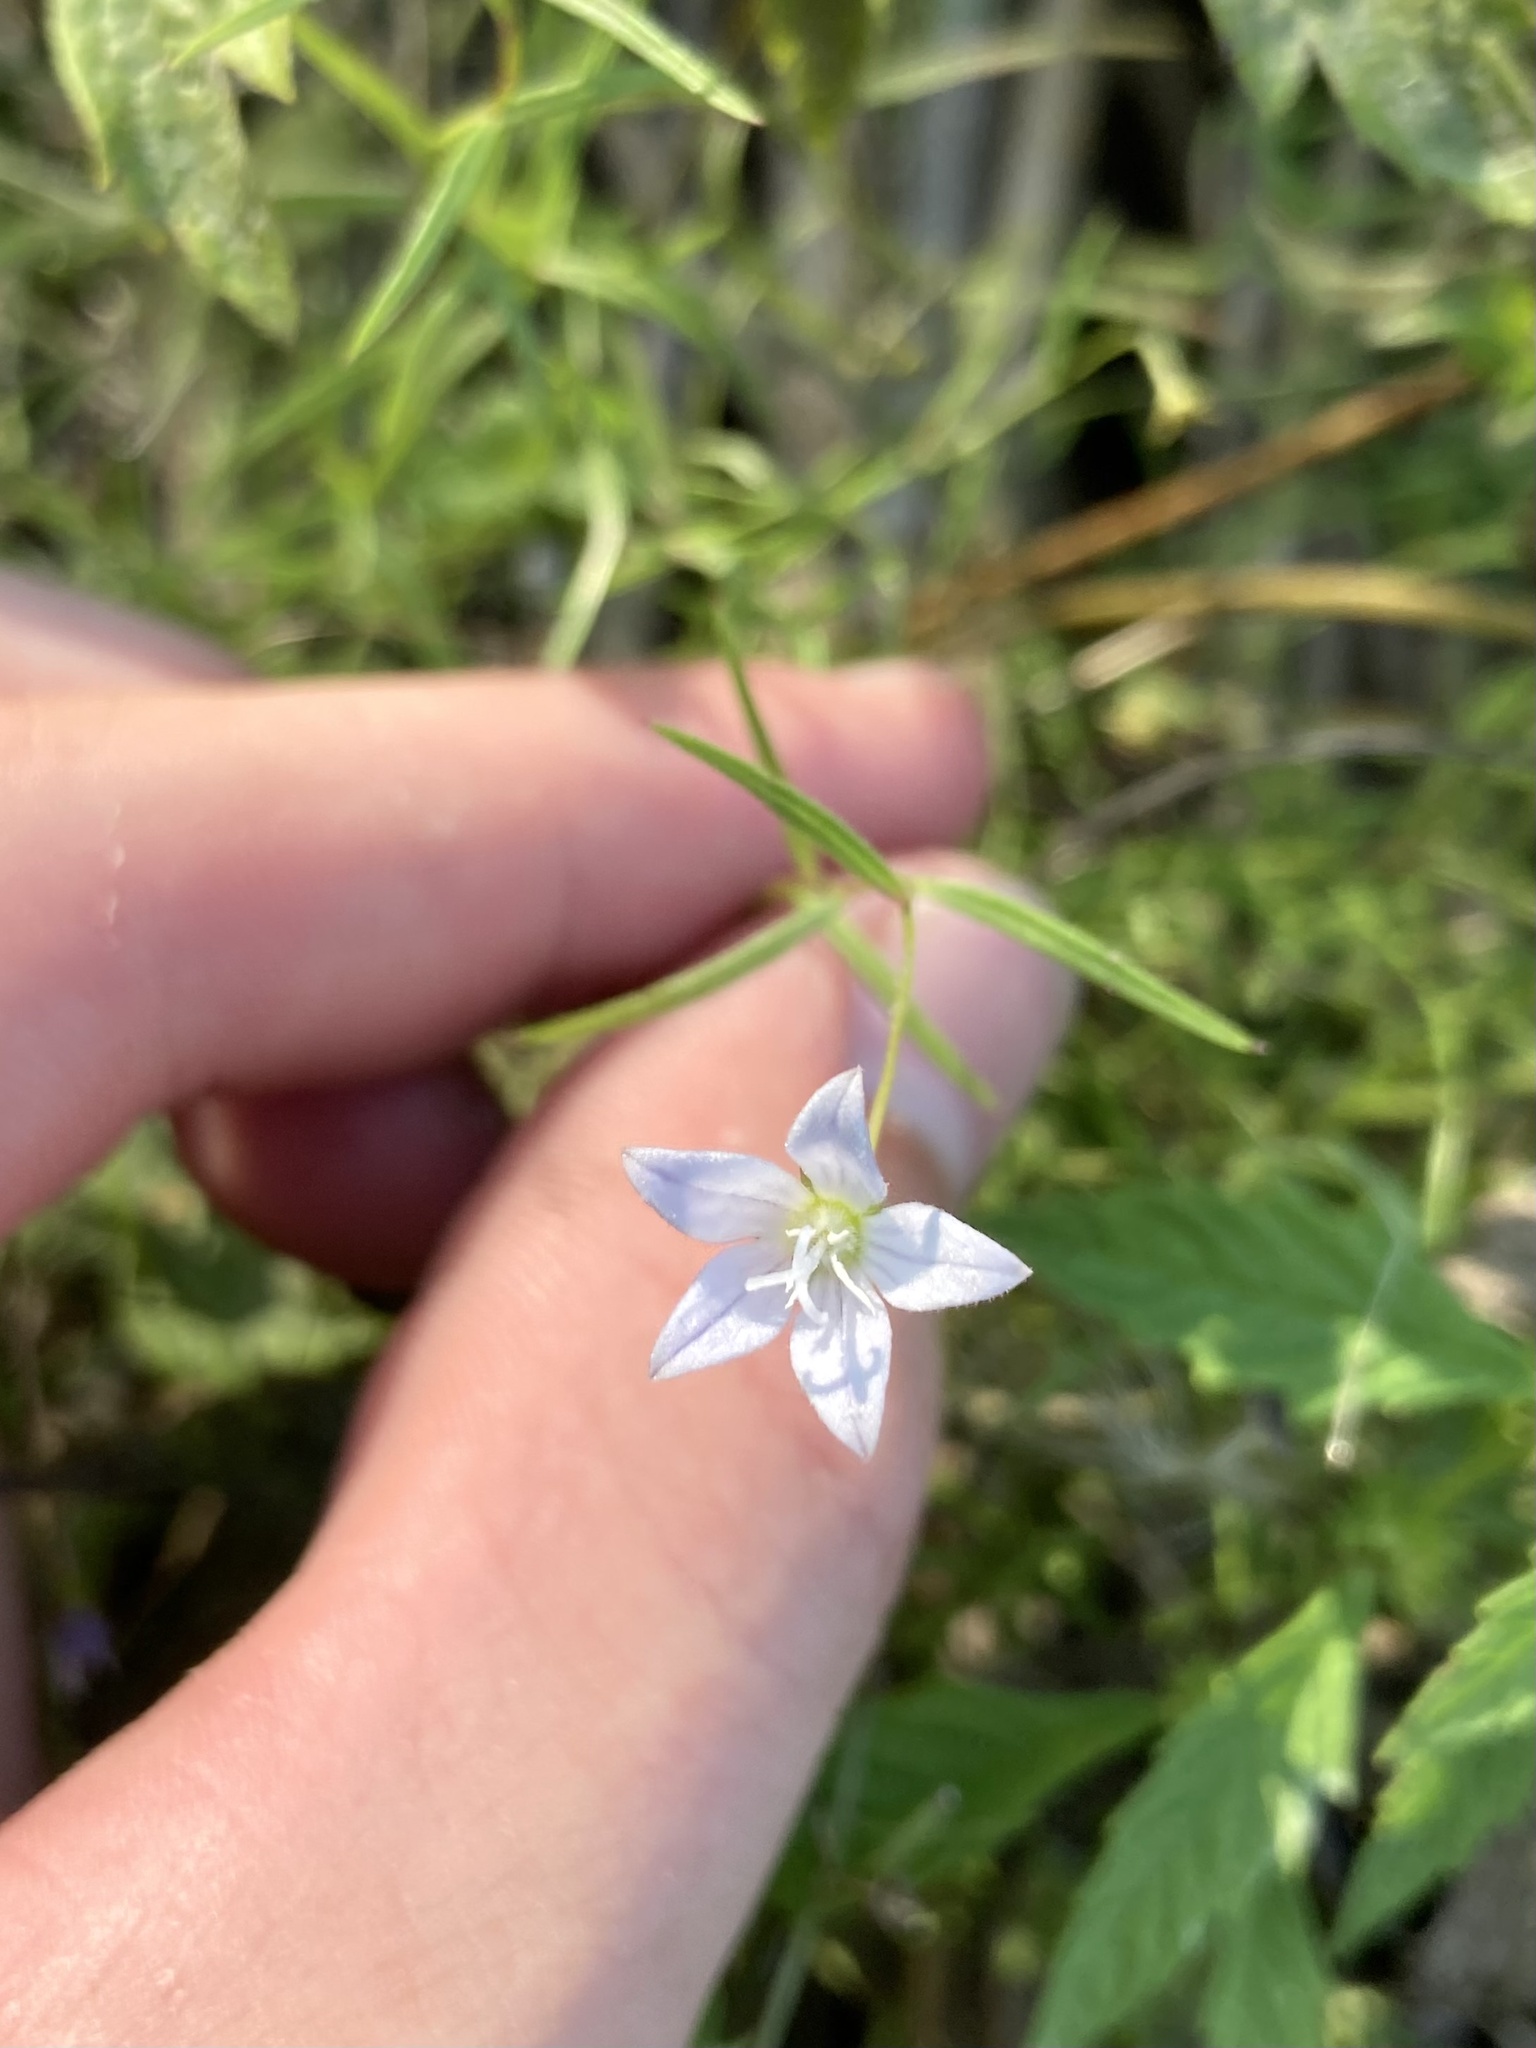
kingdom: Plantae
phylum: Tracheophyta
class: Magnoliopsida
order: Asterales
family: Campanulaceae
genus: Palustricodon
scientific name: Palustricodon aparinoides
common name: Bedstraw bellflower
